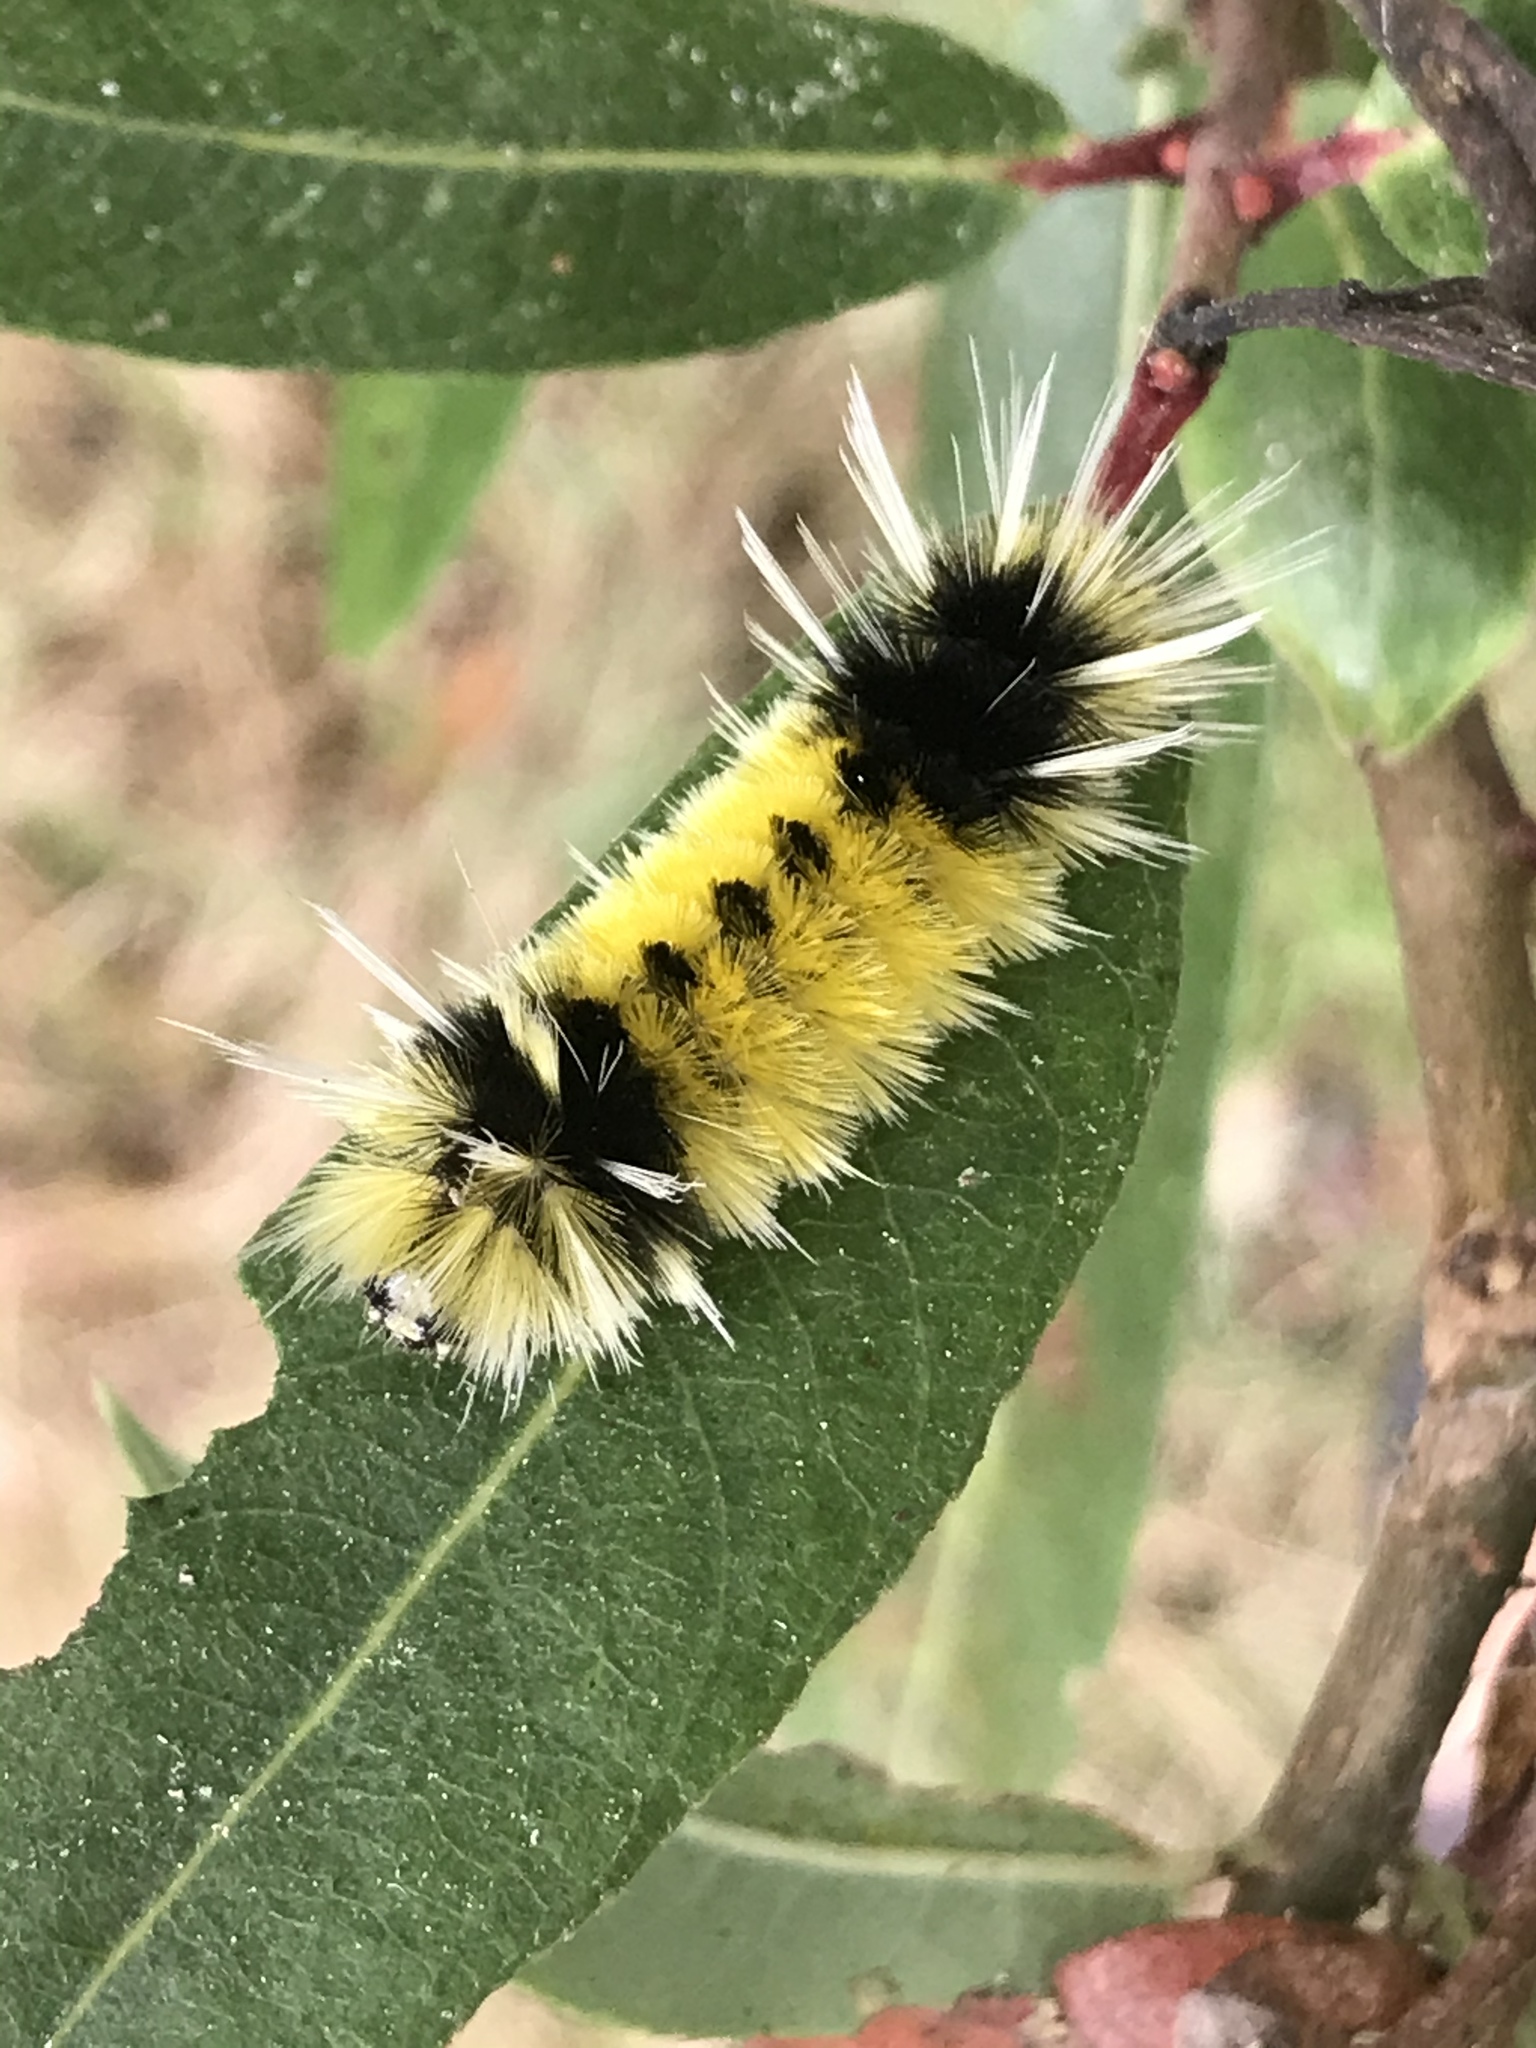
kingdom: Animalia
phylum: Arthropoda
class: Insecta
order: Lepidoptera
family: Erebidae
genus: Lophocampa
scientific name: Lophocampa maculata
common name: Spotted tussock moth
